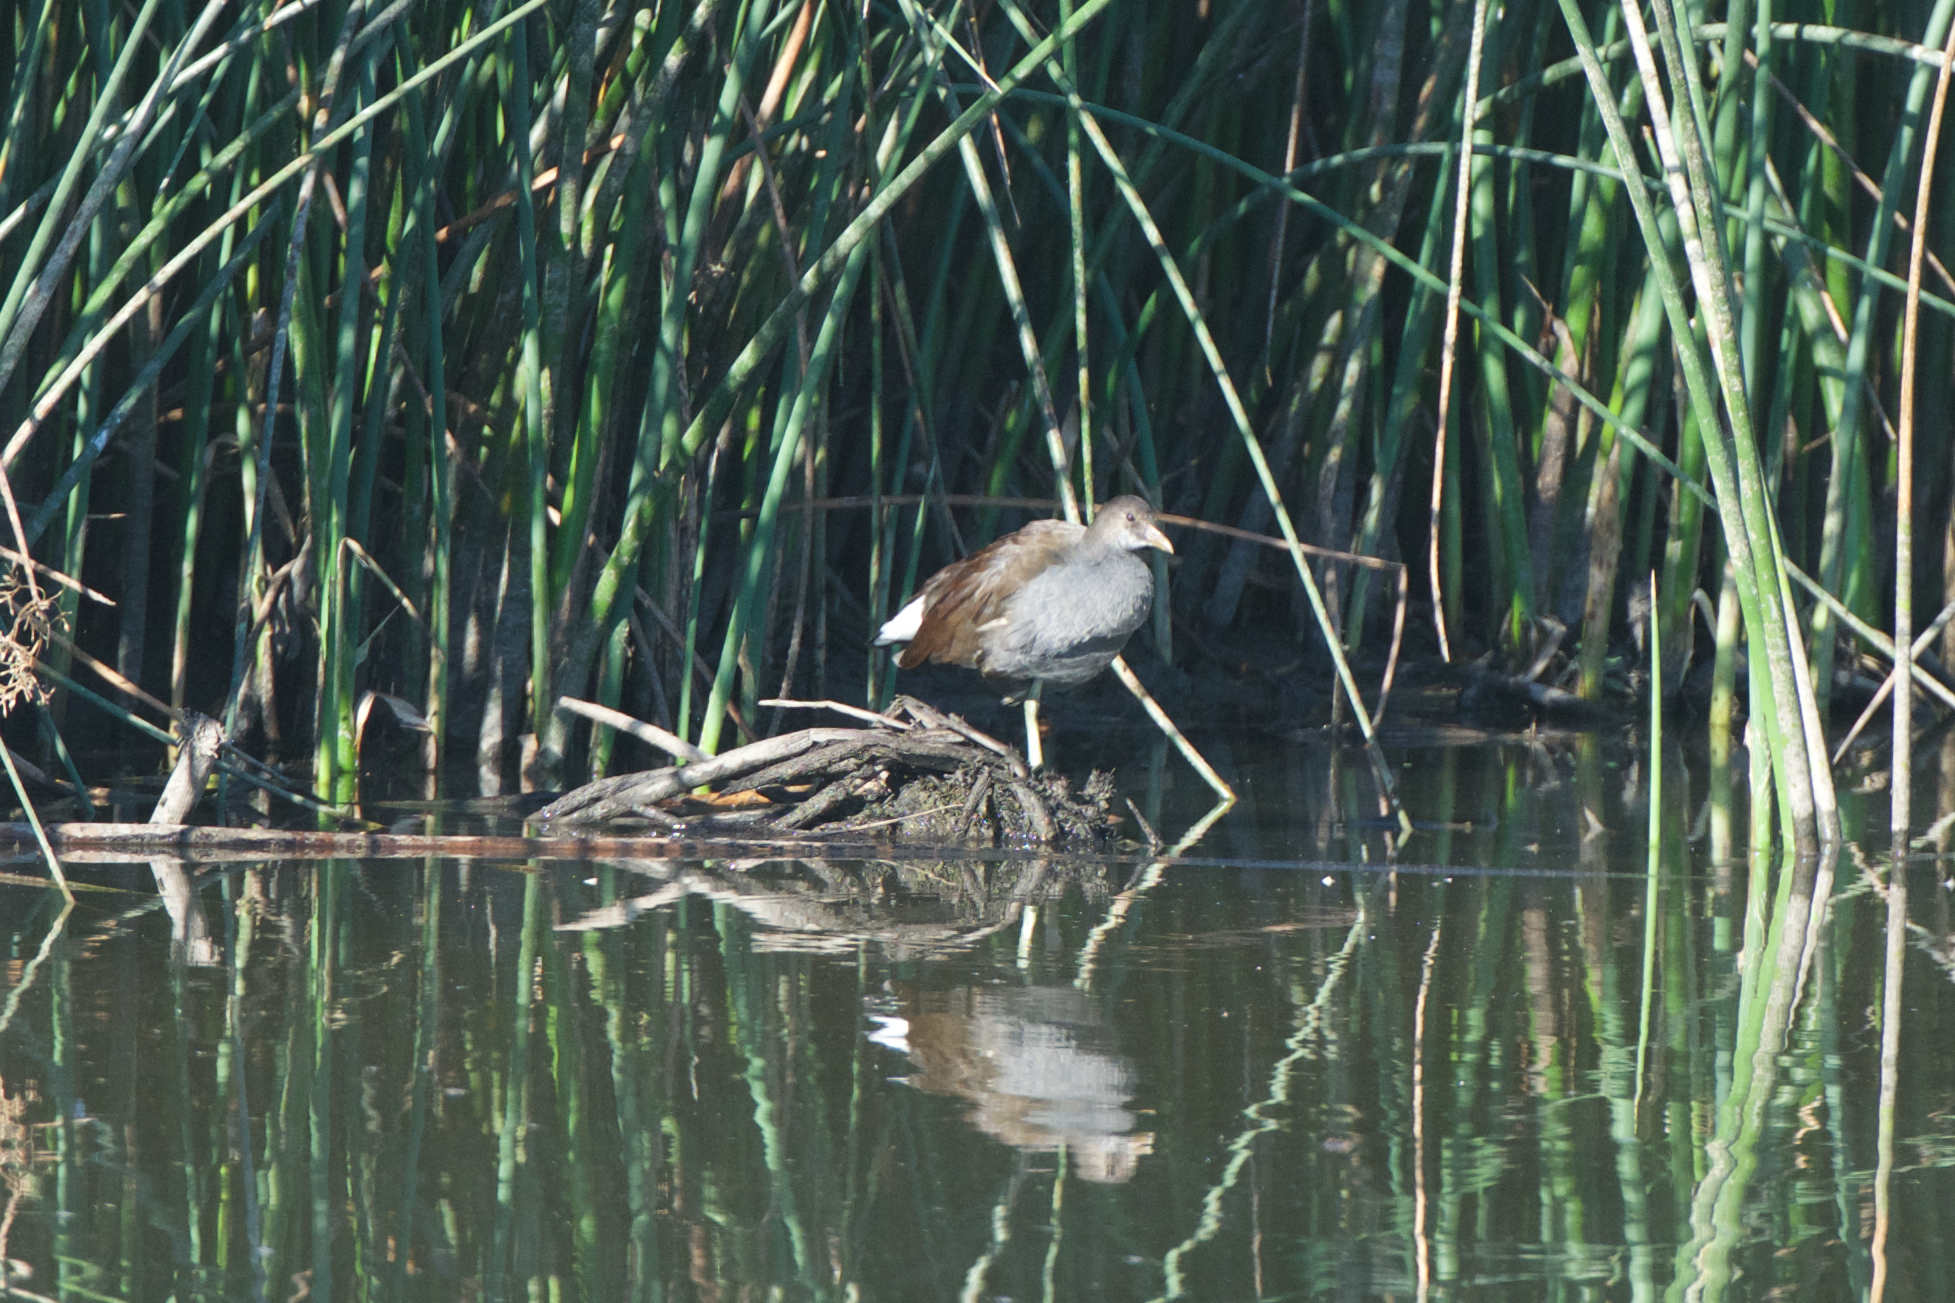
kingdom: Animalia
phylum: Chordata
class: Aves
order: Gruiformes
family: Rallidae
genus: Gallinula
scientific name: Gallinula chloropus
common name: Common moorhen
